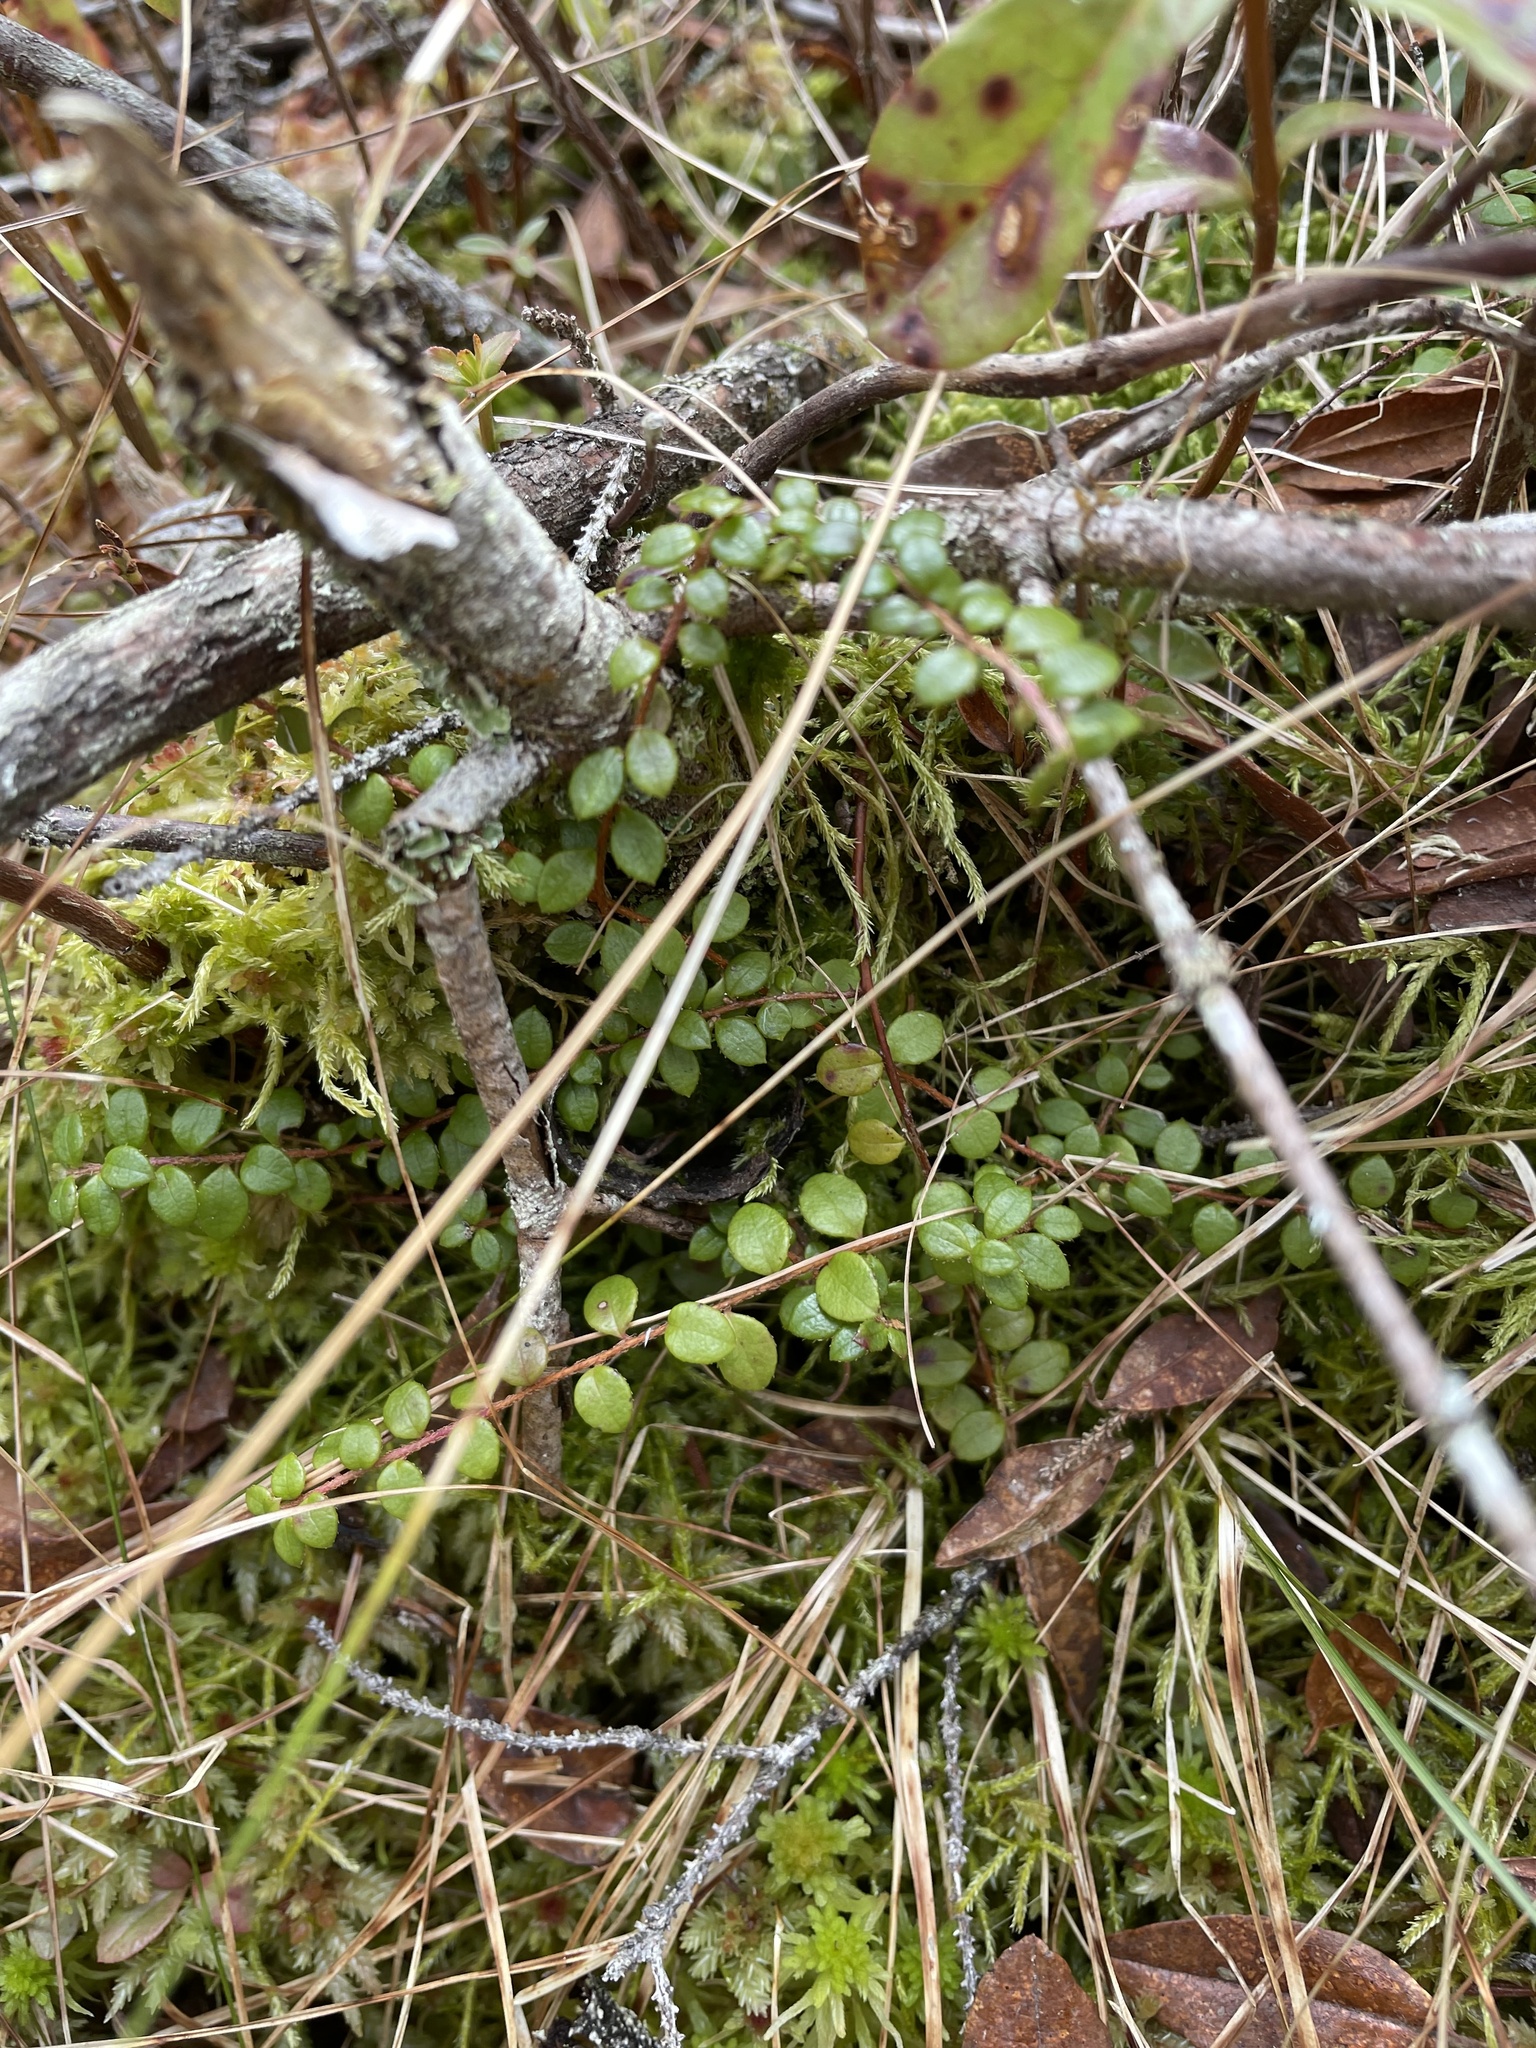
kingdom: Plantae
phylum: Tracheophyta
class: Magnoliopsida
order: Ericales
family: Ericaceae
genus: Gaultheria
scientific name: Gaultheria hispidula
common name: Cancer wintergreen
